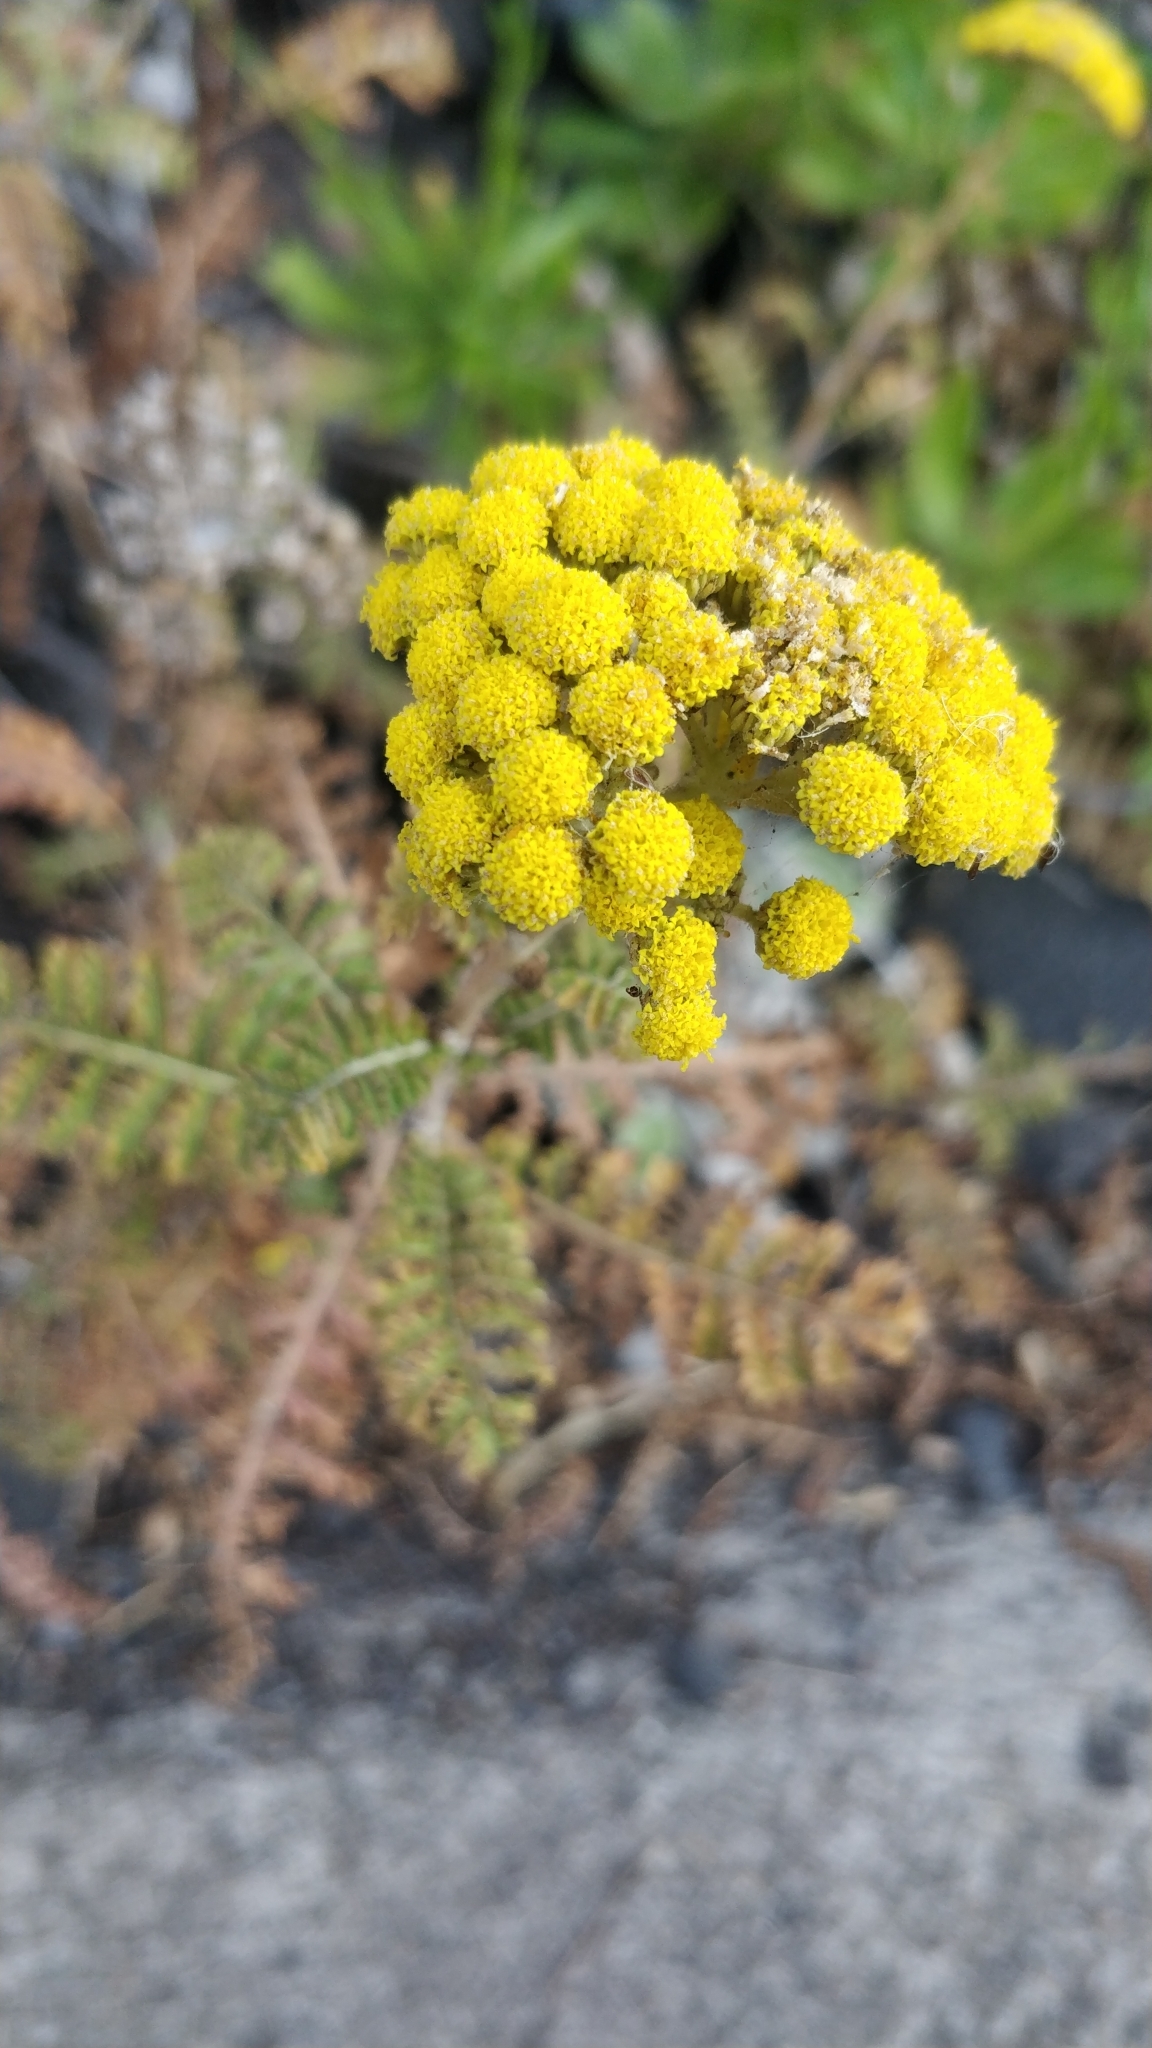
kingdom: Plantae
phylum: Tracheophyta
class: Magnoliopsida
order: Asterales
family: Asteraceae
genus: Gonospermum
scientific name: Gonospermum fruticosum
